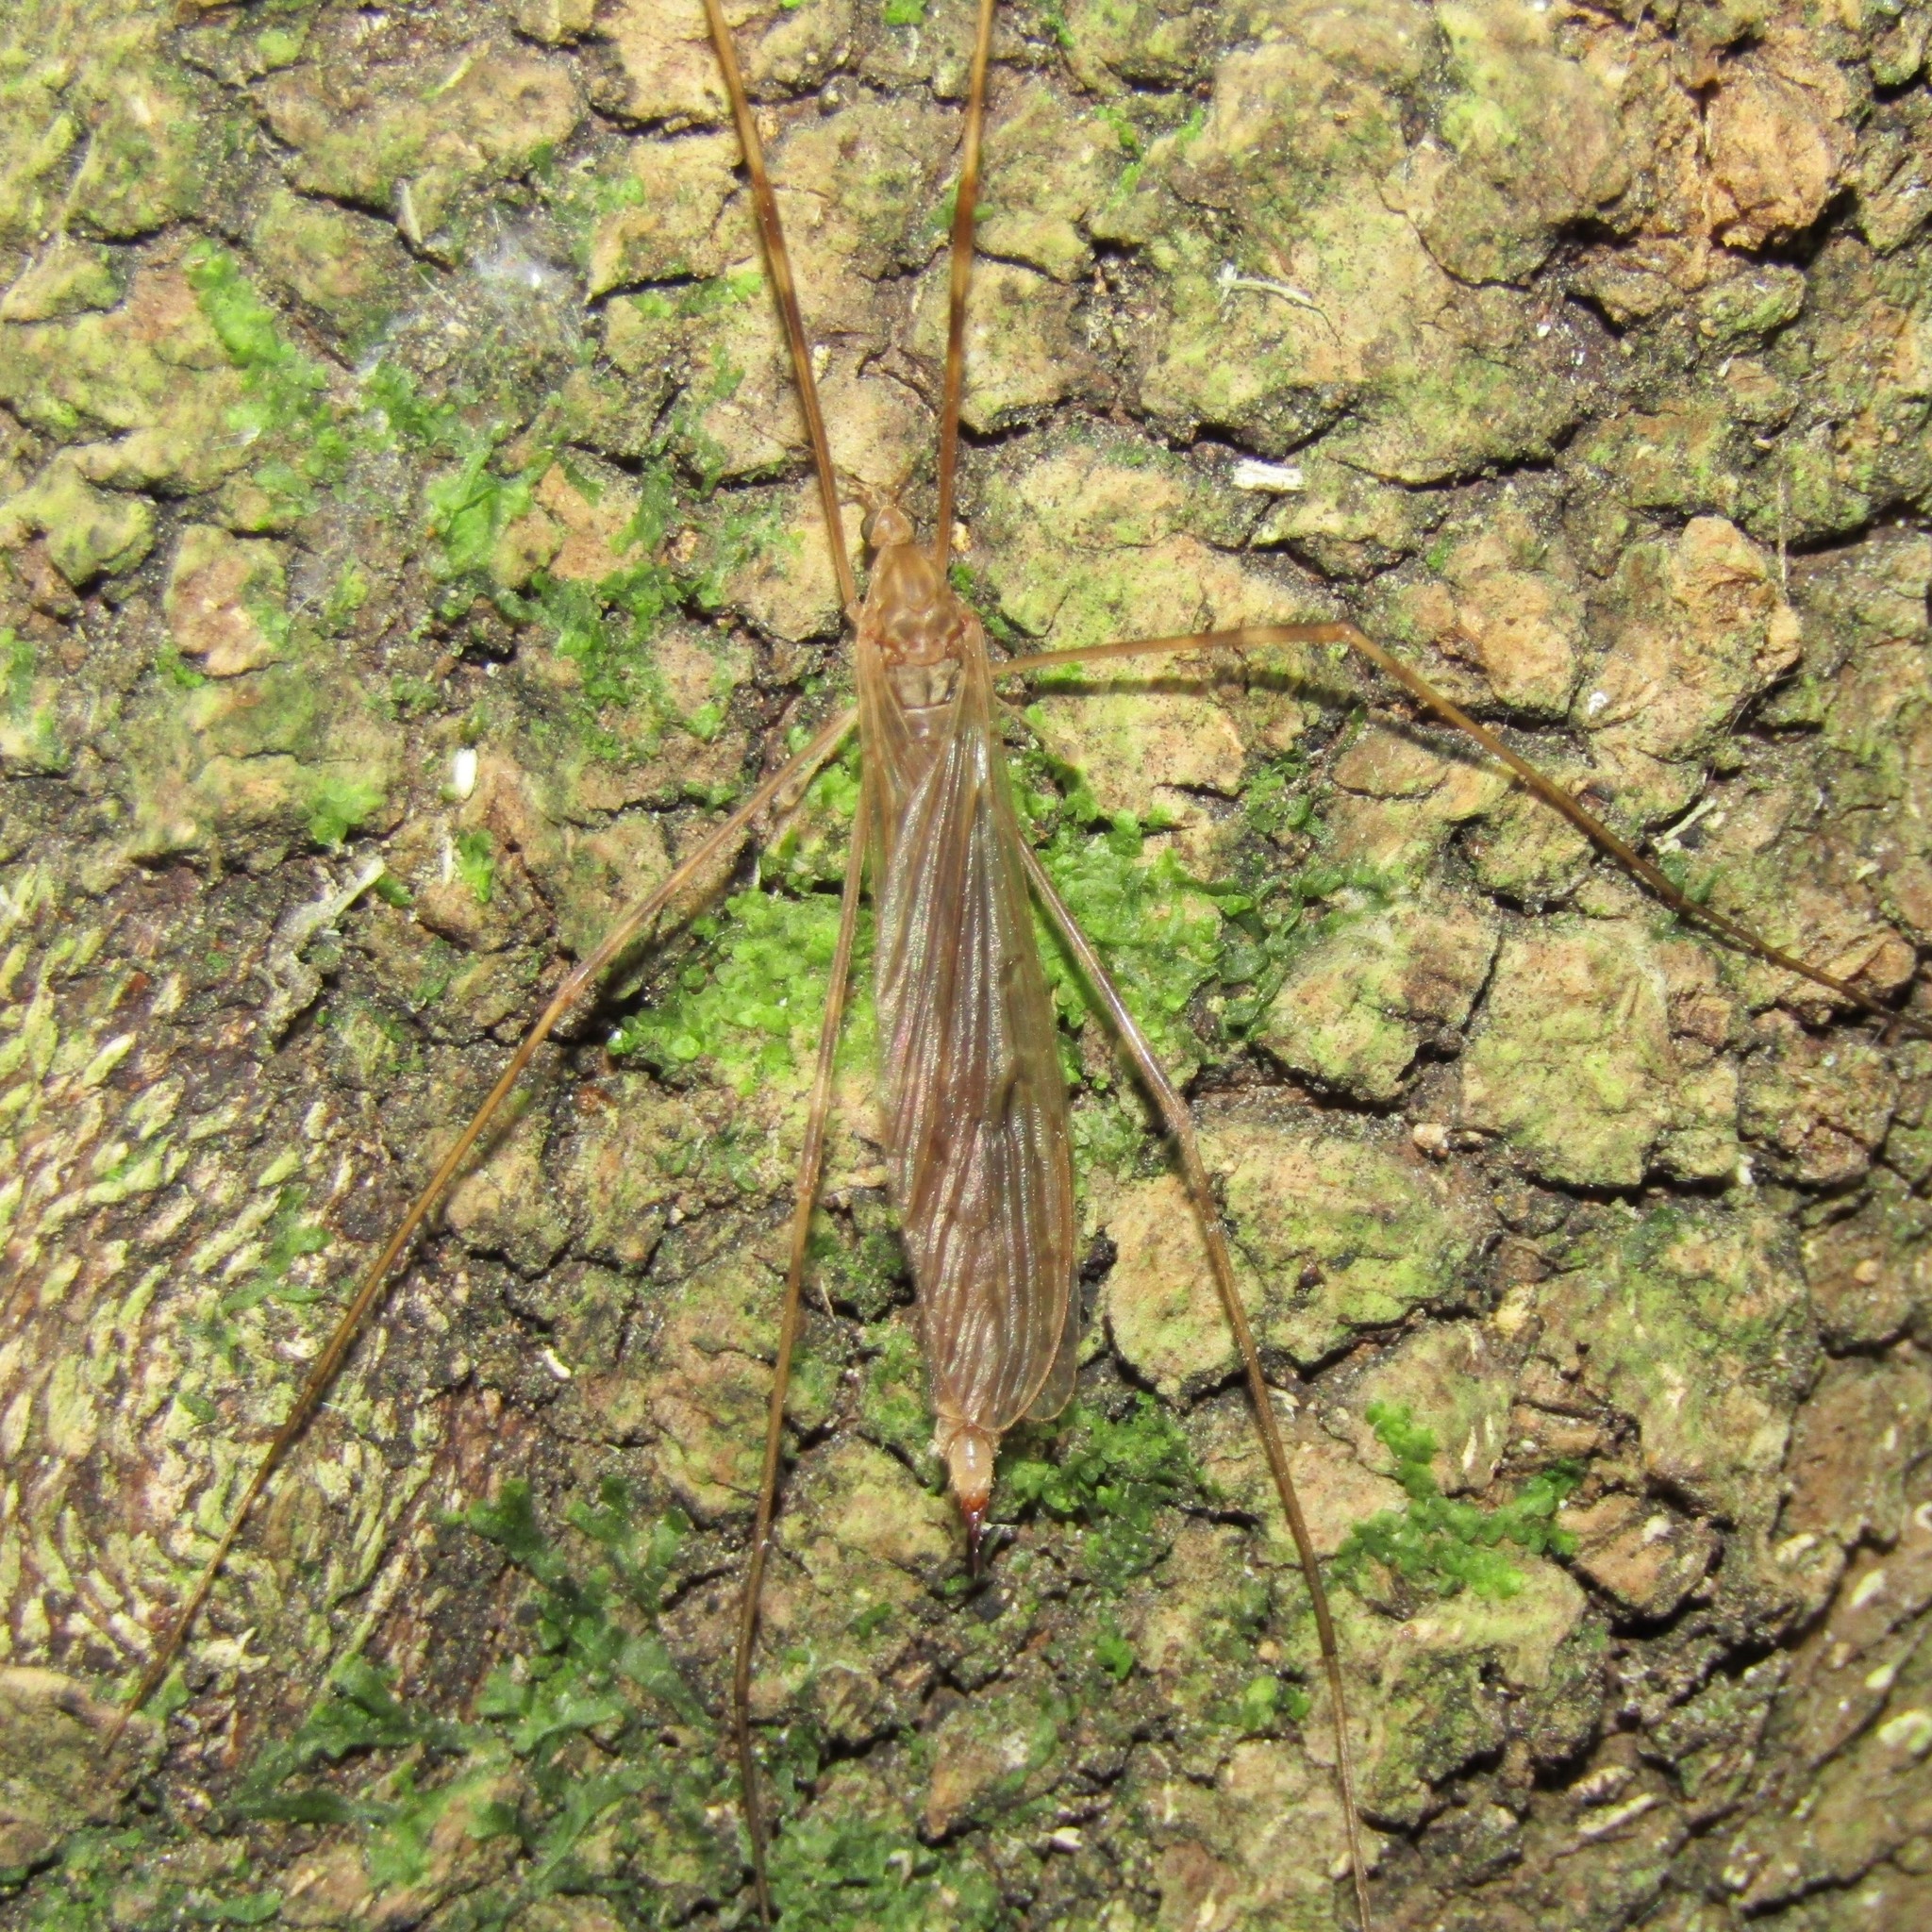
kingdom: Animalia
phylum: Arthropoda
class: Insecta
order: Diptera
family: Limoniidae
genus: Austrolimnophila
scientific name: Austrolimnophila crassipes
